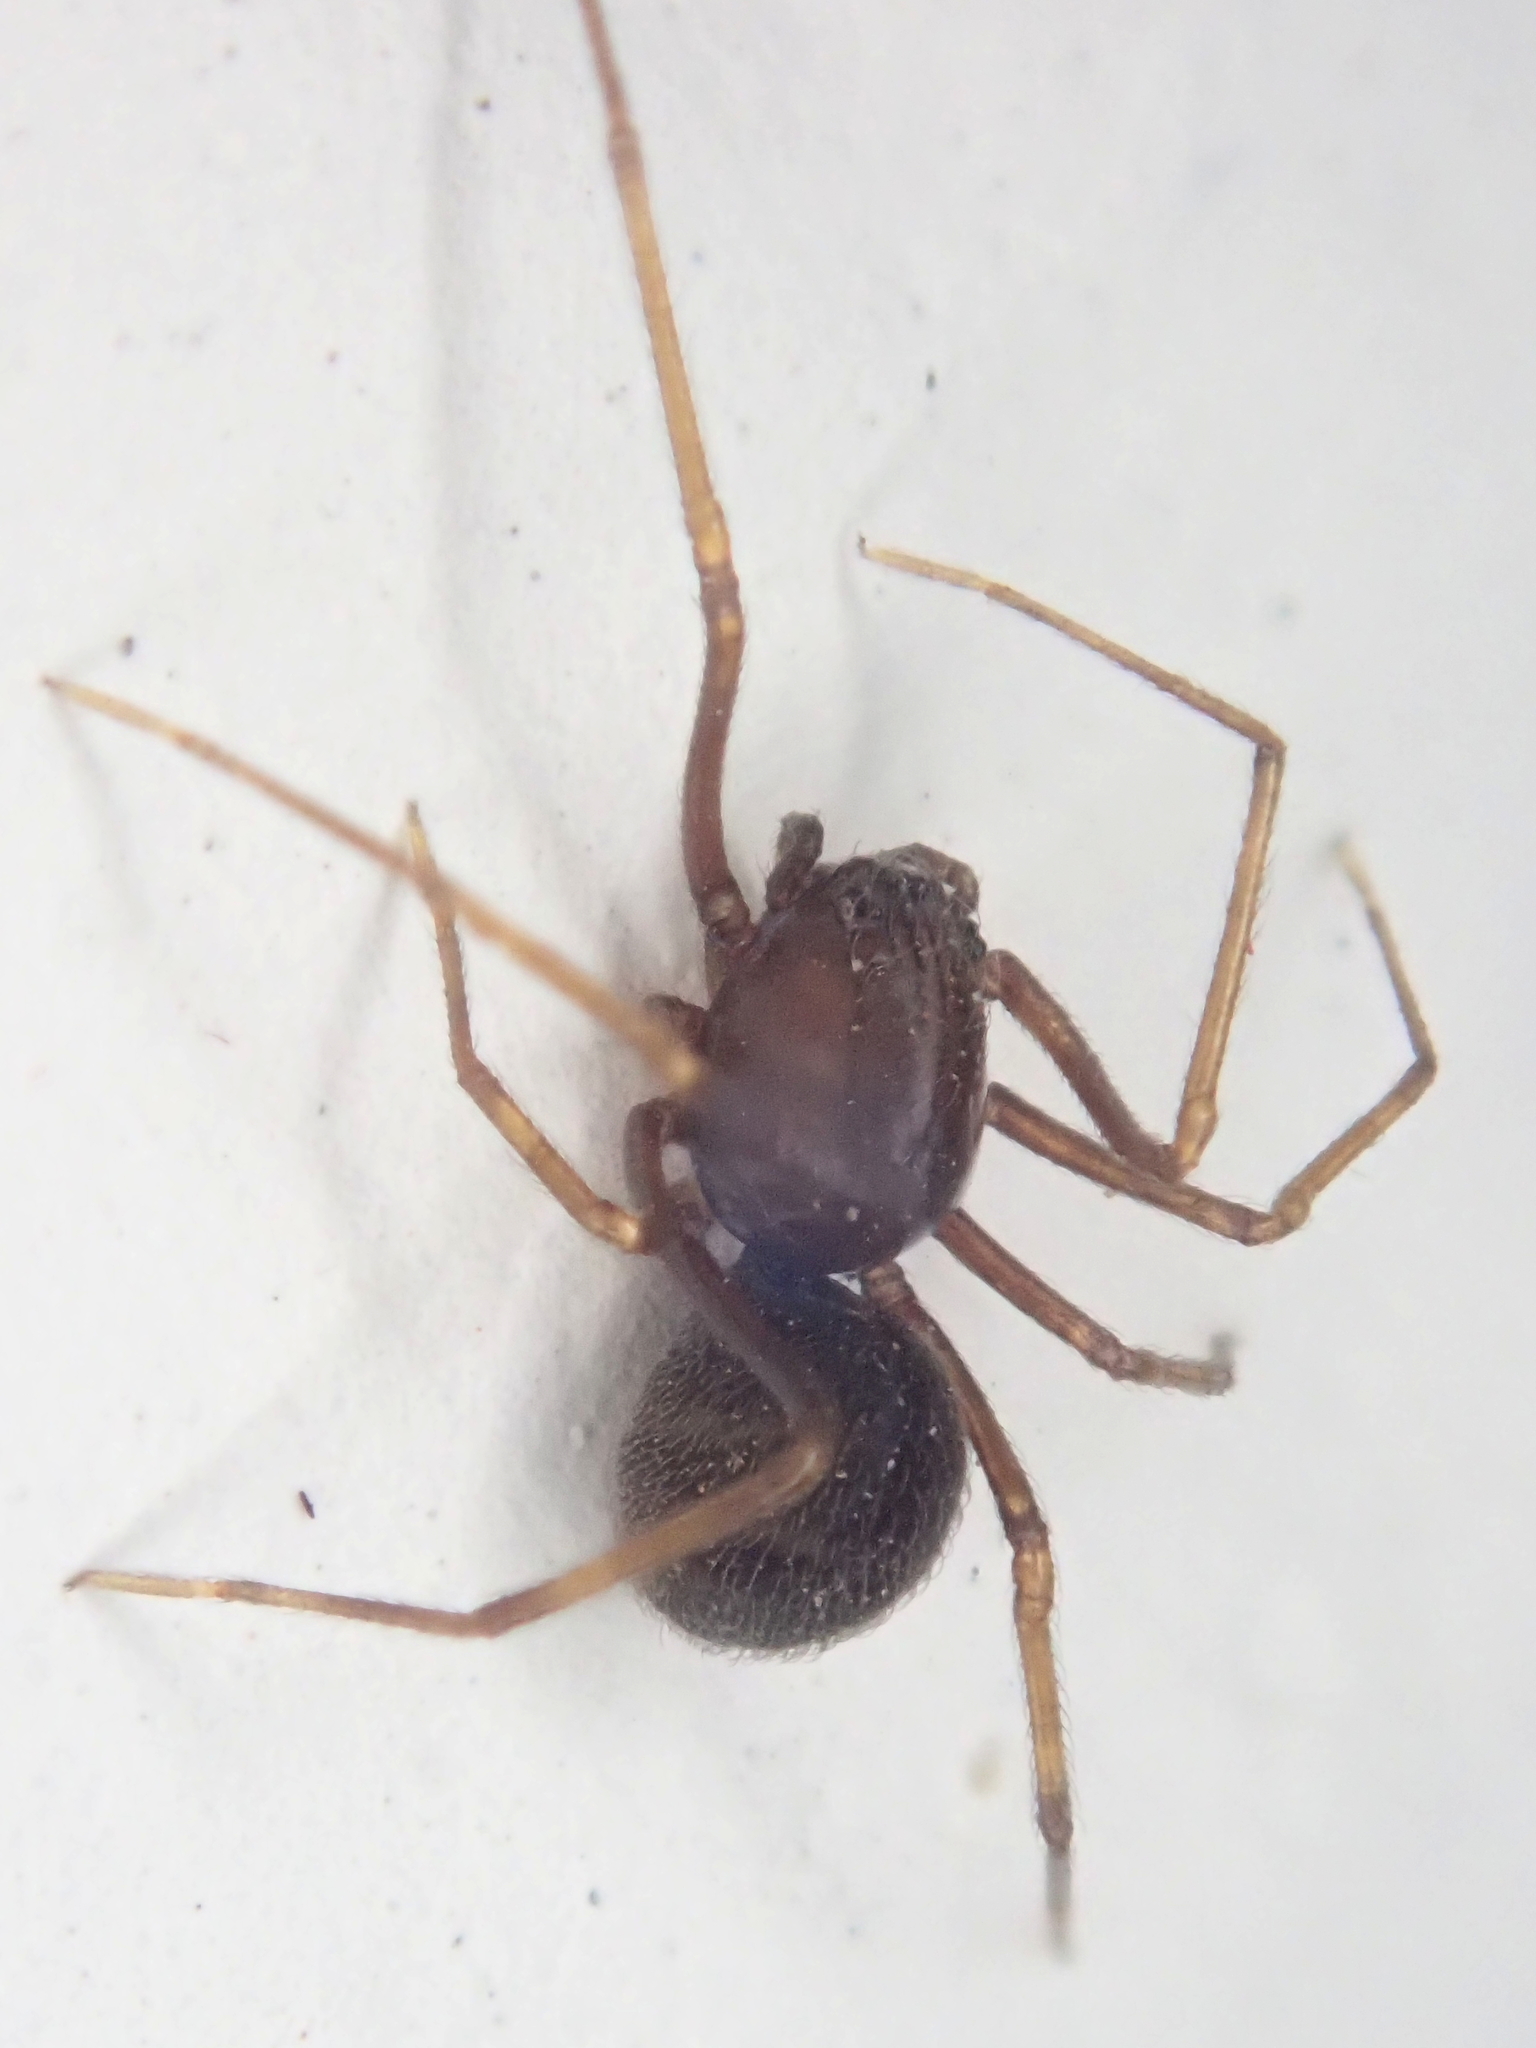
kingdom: Animalia
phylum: Arthropoda
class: Arachnida
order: Araneae
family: Scytodidae
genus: Scytodes
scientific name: Scytodes fusca
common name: Spitting spiders
